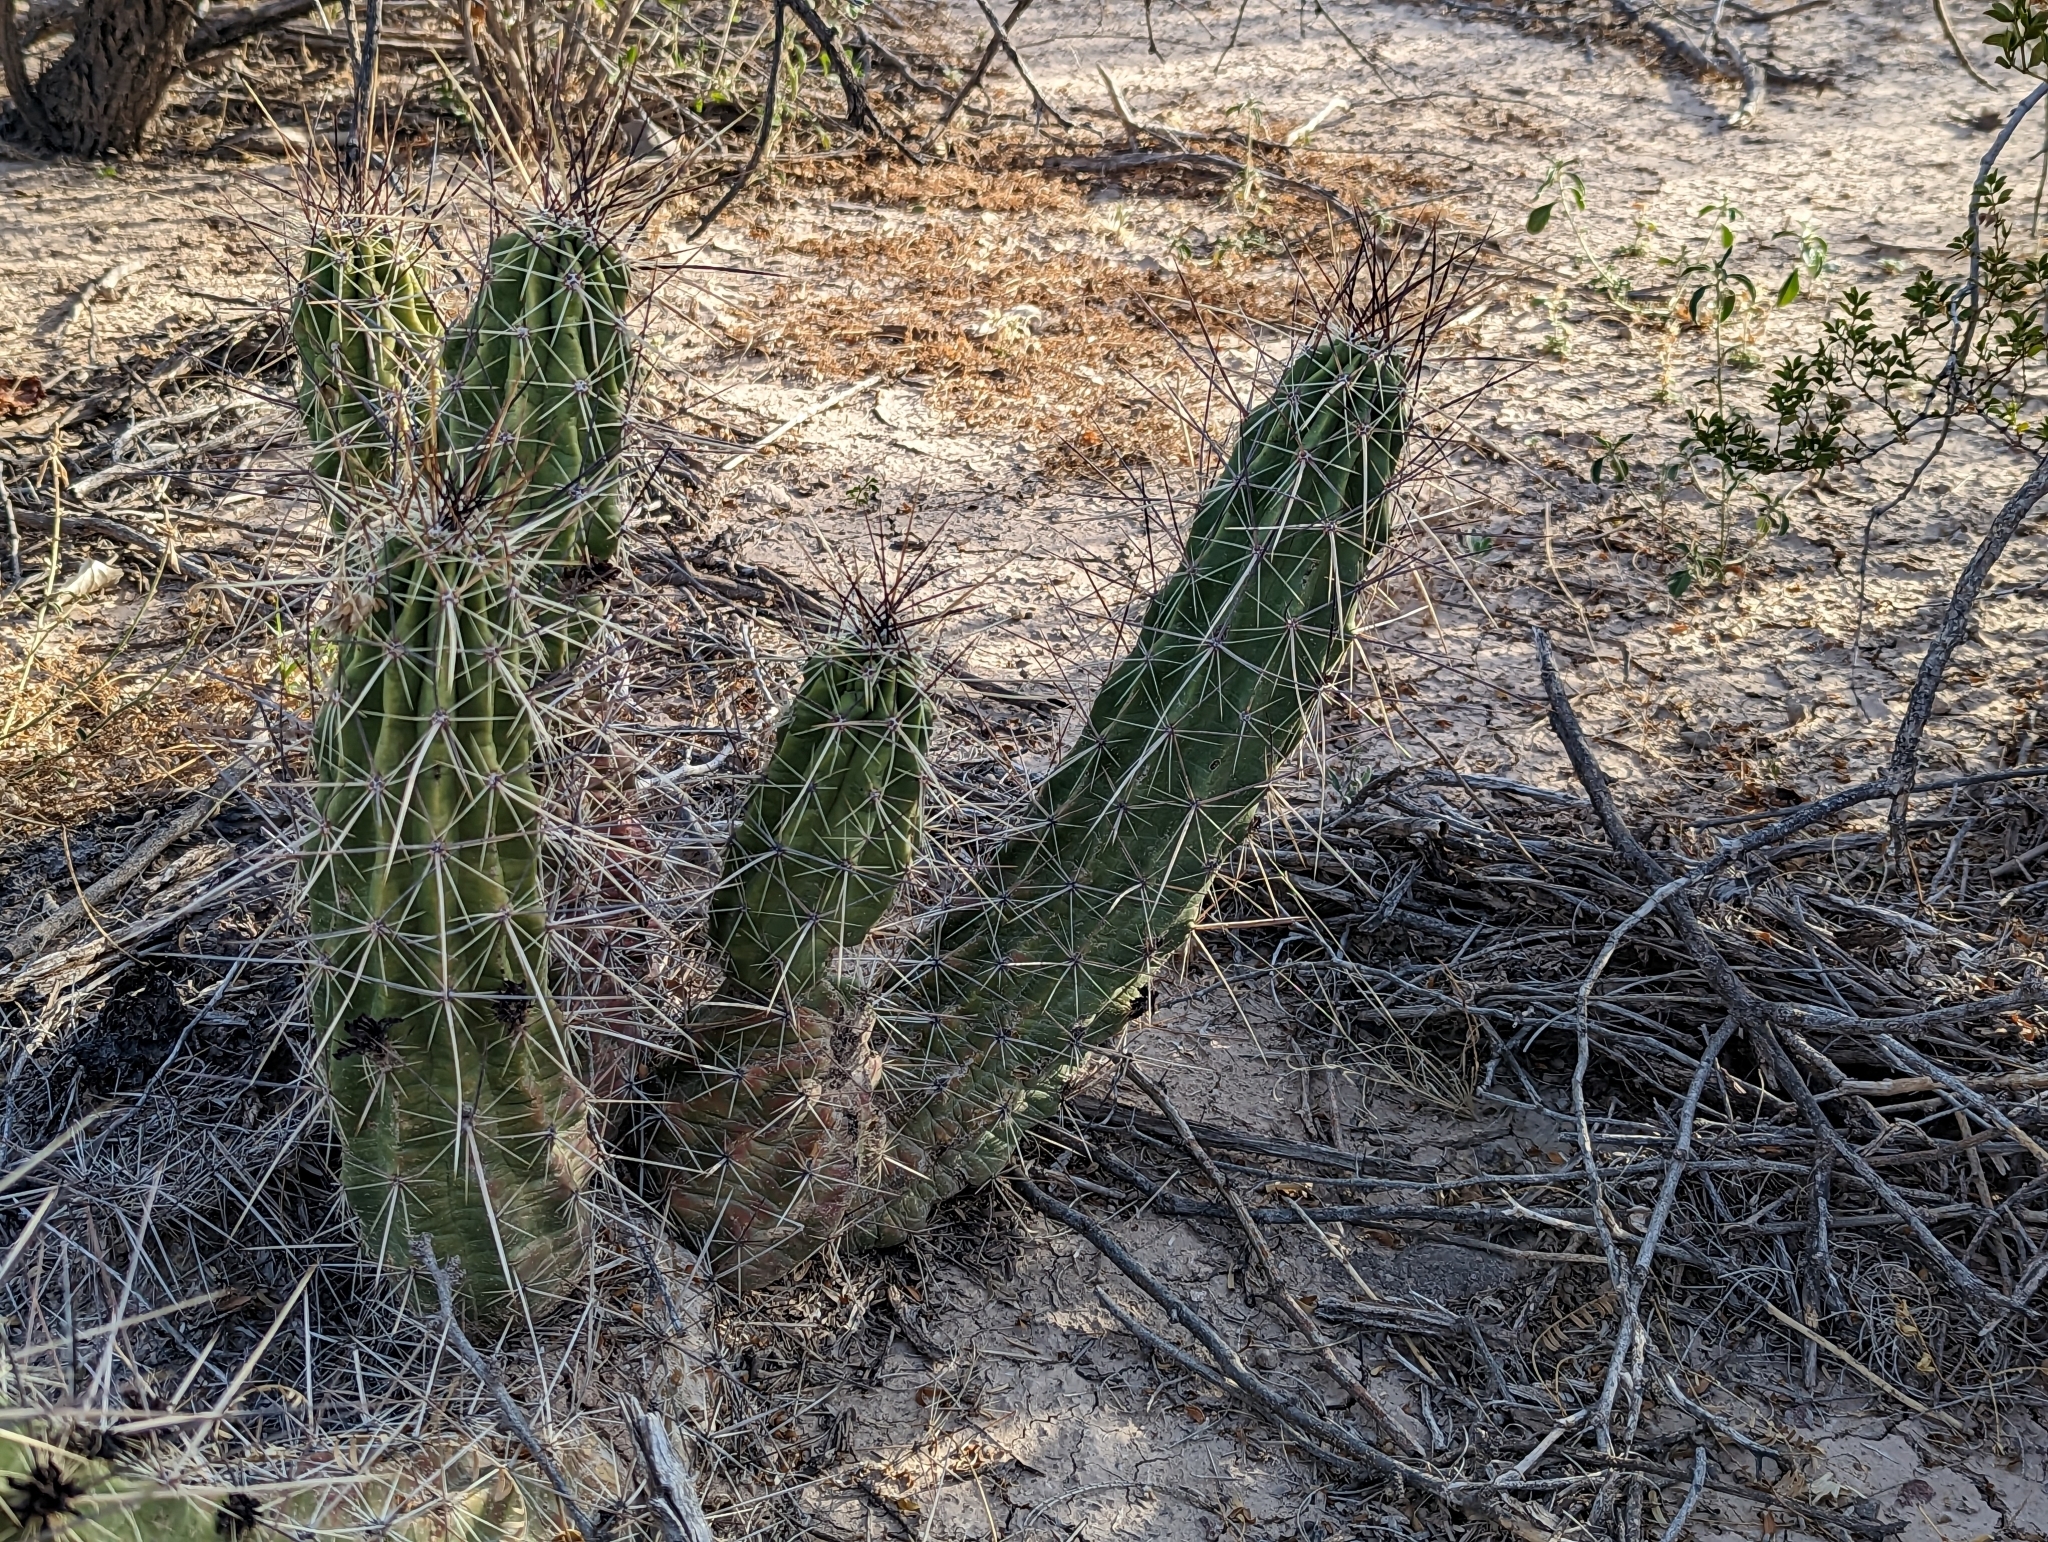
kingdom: Plantae
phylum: Tracheophyta
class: Magnoliopsida
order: Caryophyllales
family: Cactaceae
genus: Echinocereus
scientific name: Echinocereus enneacanthus
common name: Pitaya
